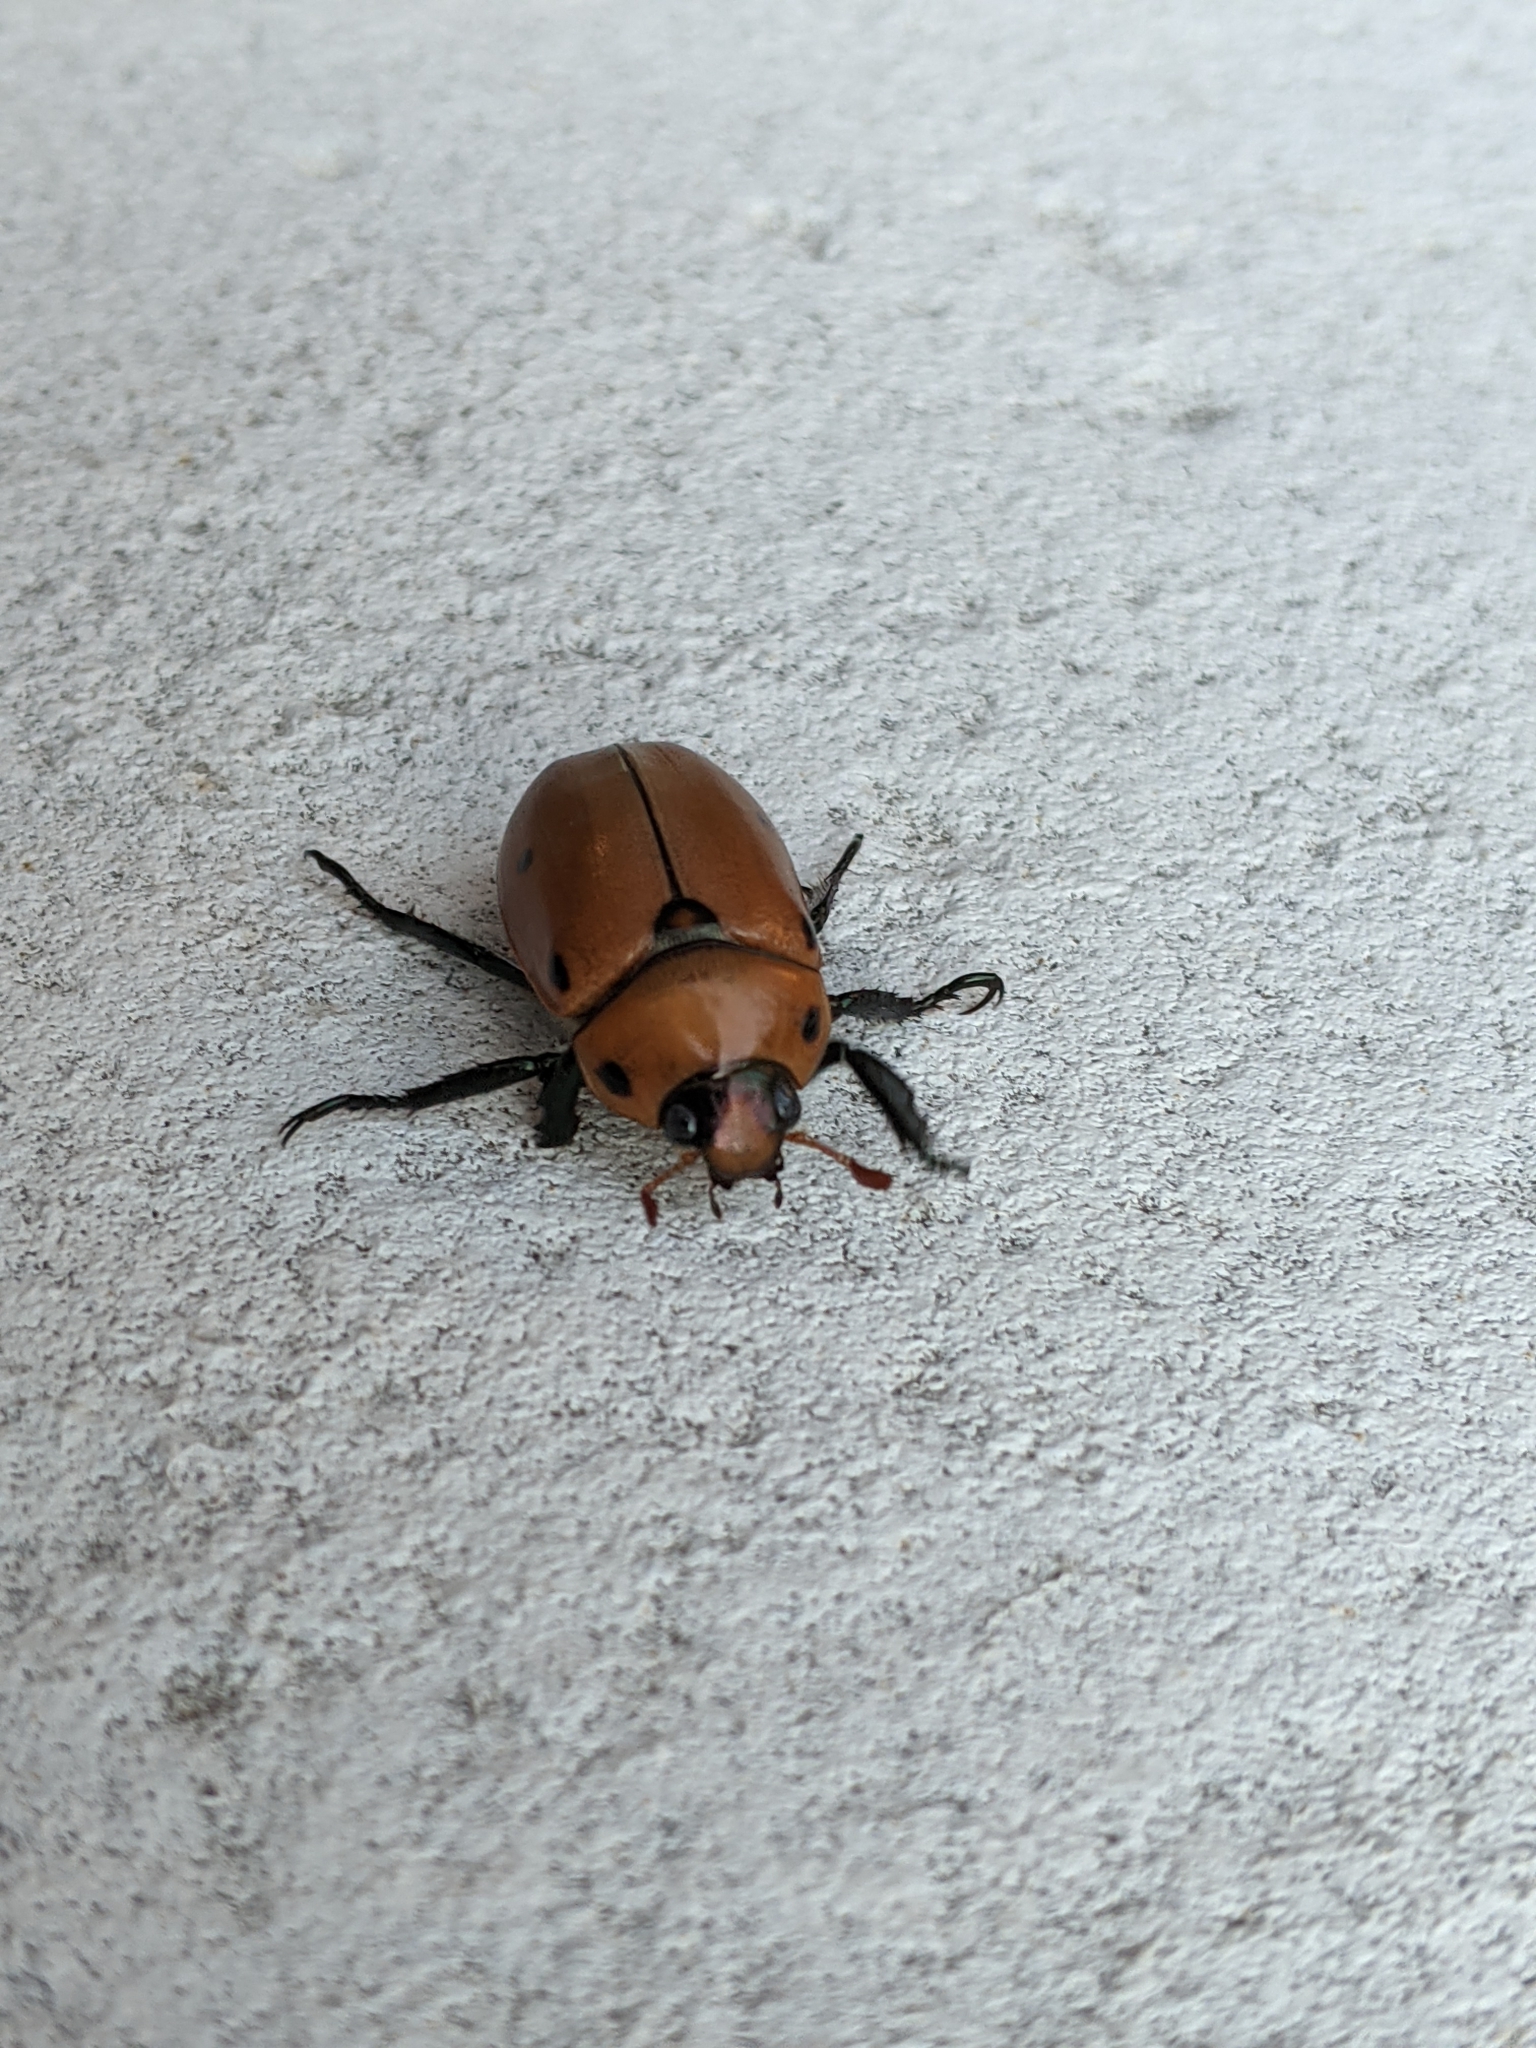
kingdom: Animalia
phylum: Arthropoda
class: Insecta
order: Coleoptera
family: Scarabaeidae
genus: Pelidnota
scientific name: Pelidnota punctata
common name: Grapevine beetle
